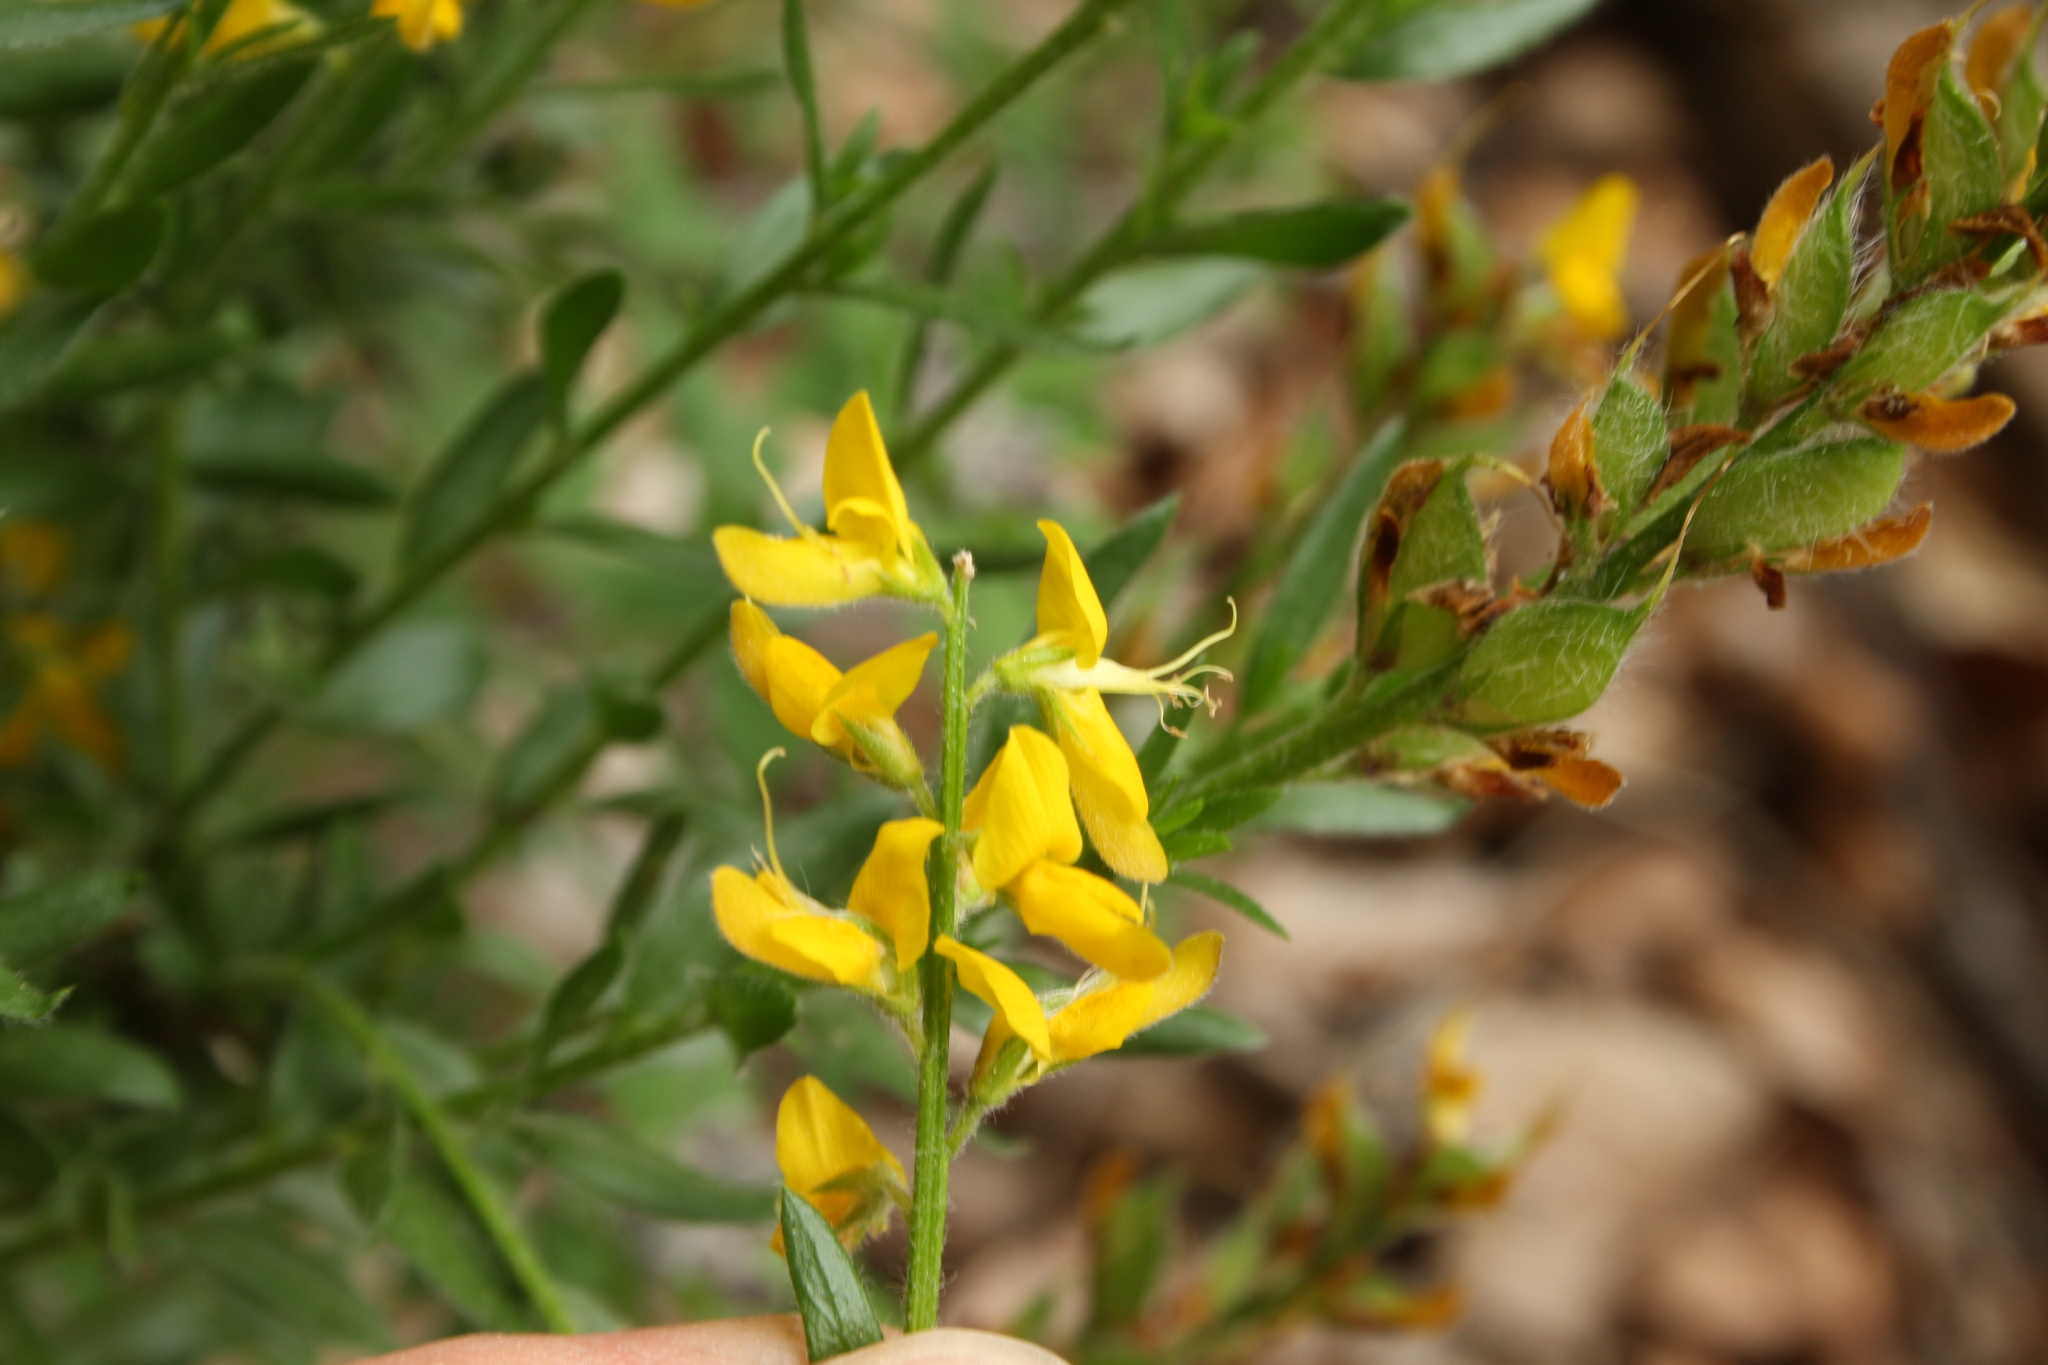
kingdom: Plantae
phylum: Tracheophyta
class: Magnoliopsida
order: Fabales
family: Fabaceae
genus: Genista
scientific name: Genista germanica
